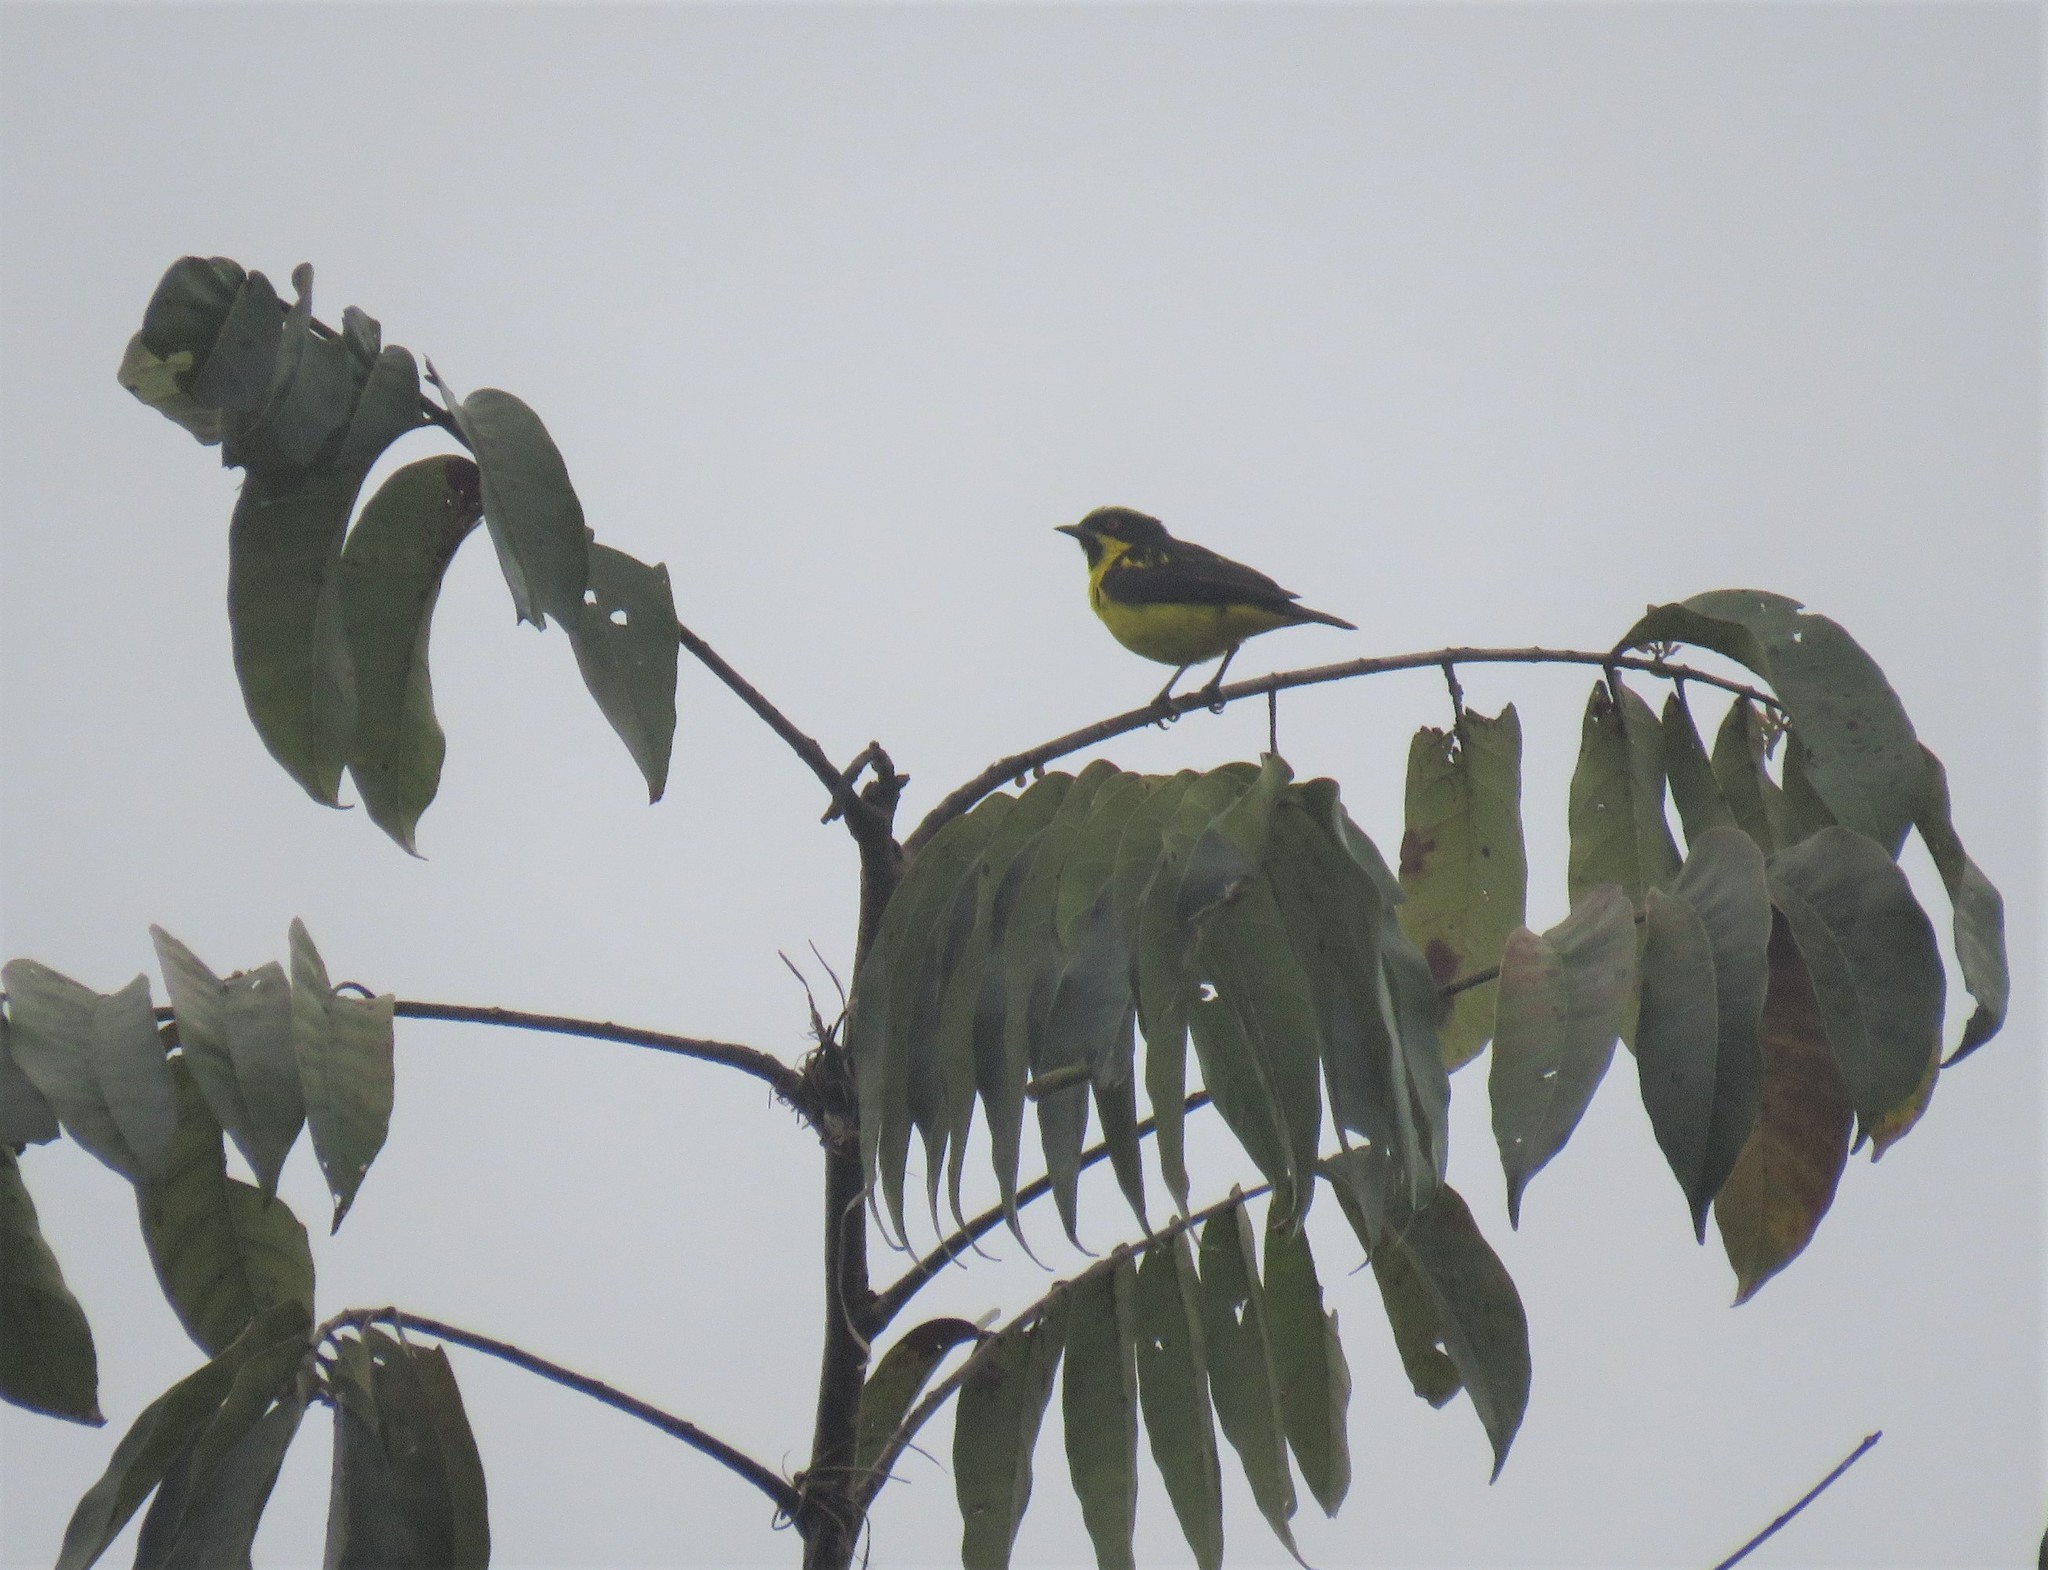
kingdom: Animalia
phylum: Chordata
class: Aves
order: Passeriformes
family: Thraupidae
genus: Dacnis
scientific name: Dacnis flaviventer
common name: Yellow-bellied dacnis
